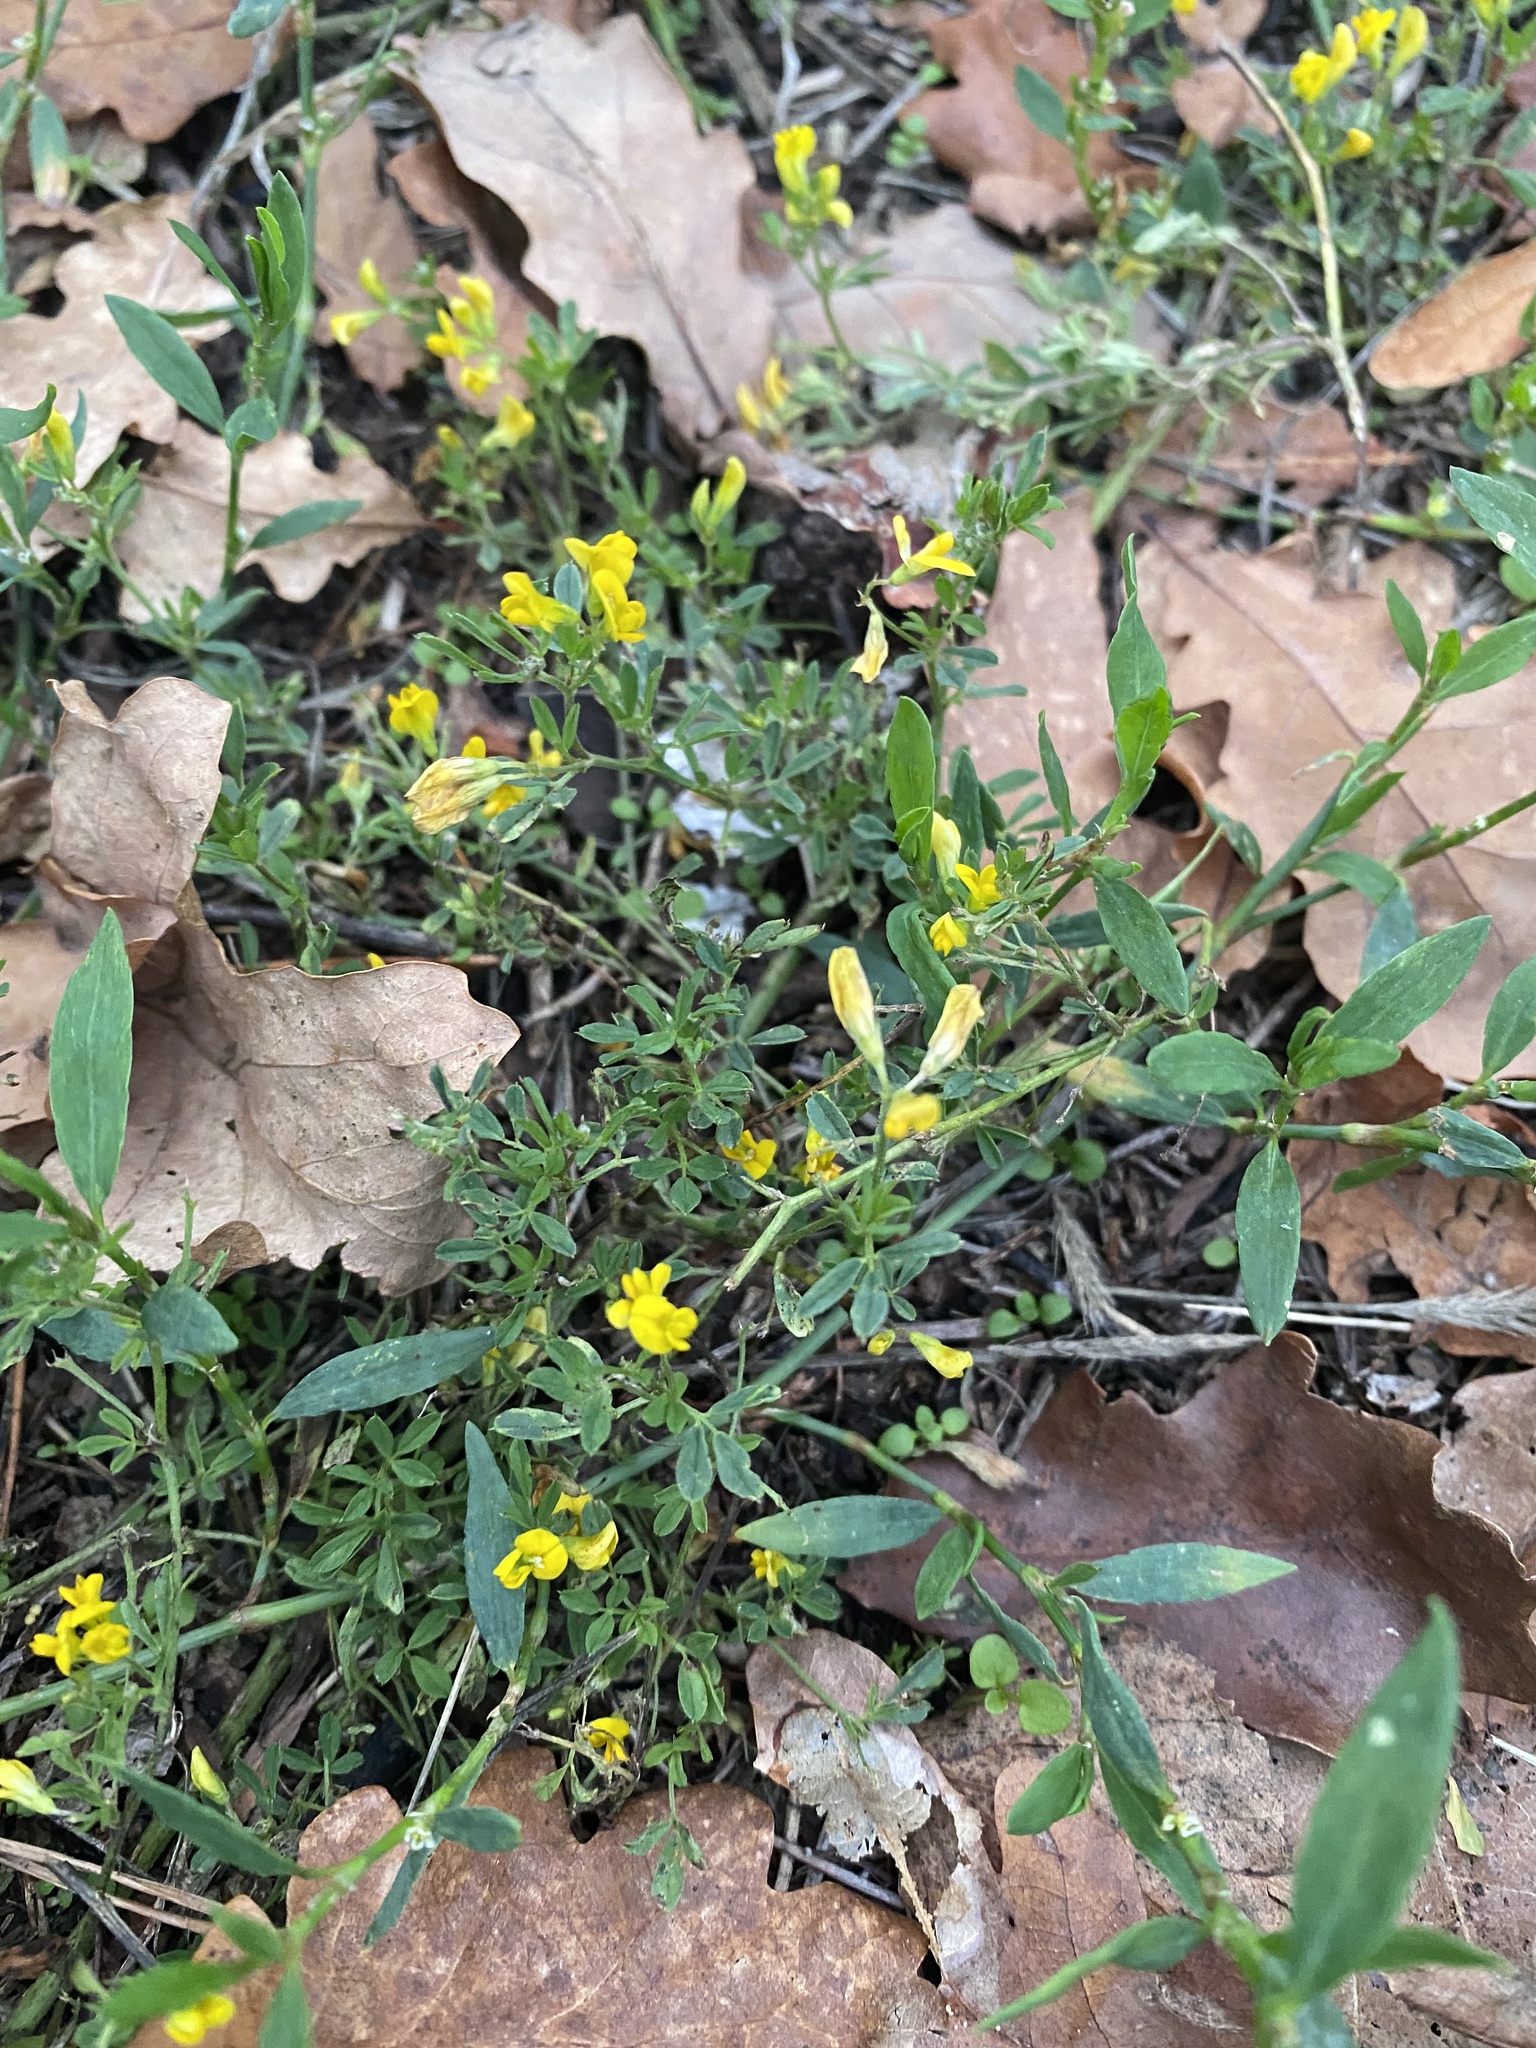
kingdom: Plantae
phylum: Tracheophyta
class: Magnoliopsida
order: Fabales
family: Fabaceae
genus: Medicago
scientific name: Medicago falcata
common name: Sickle medick
